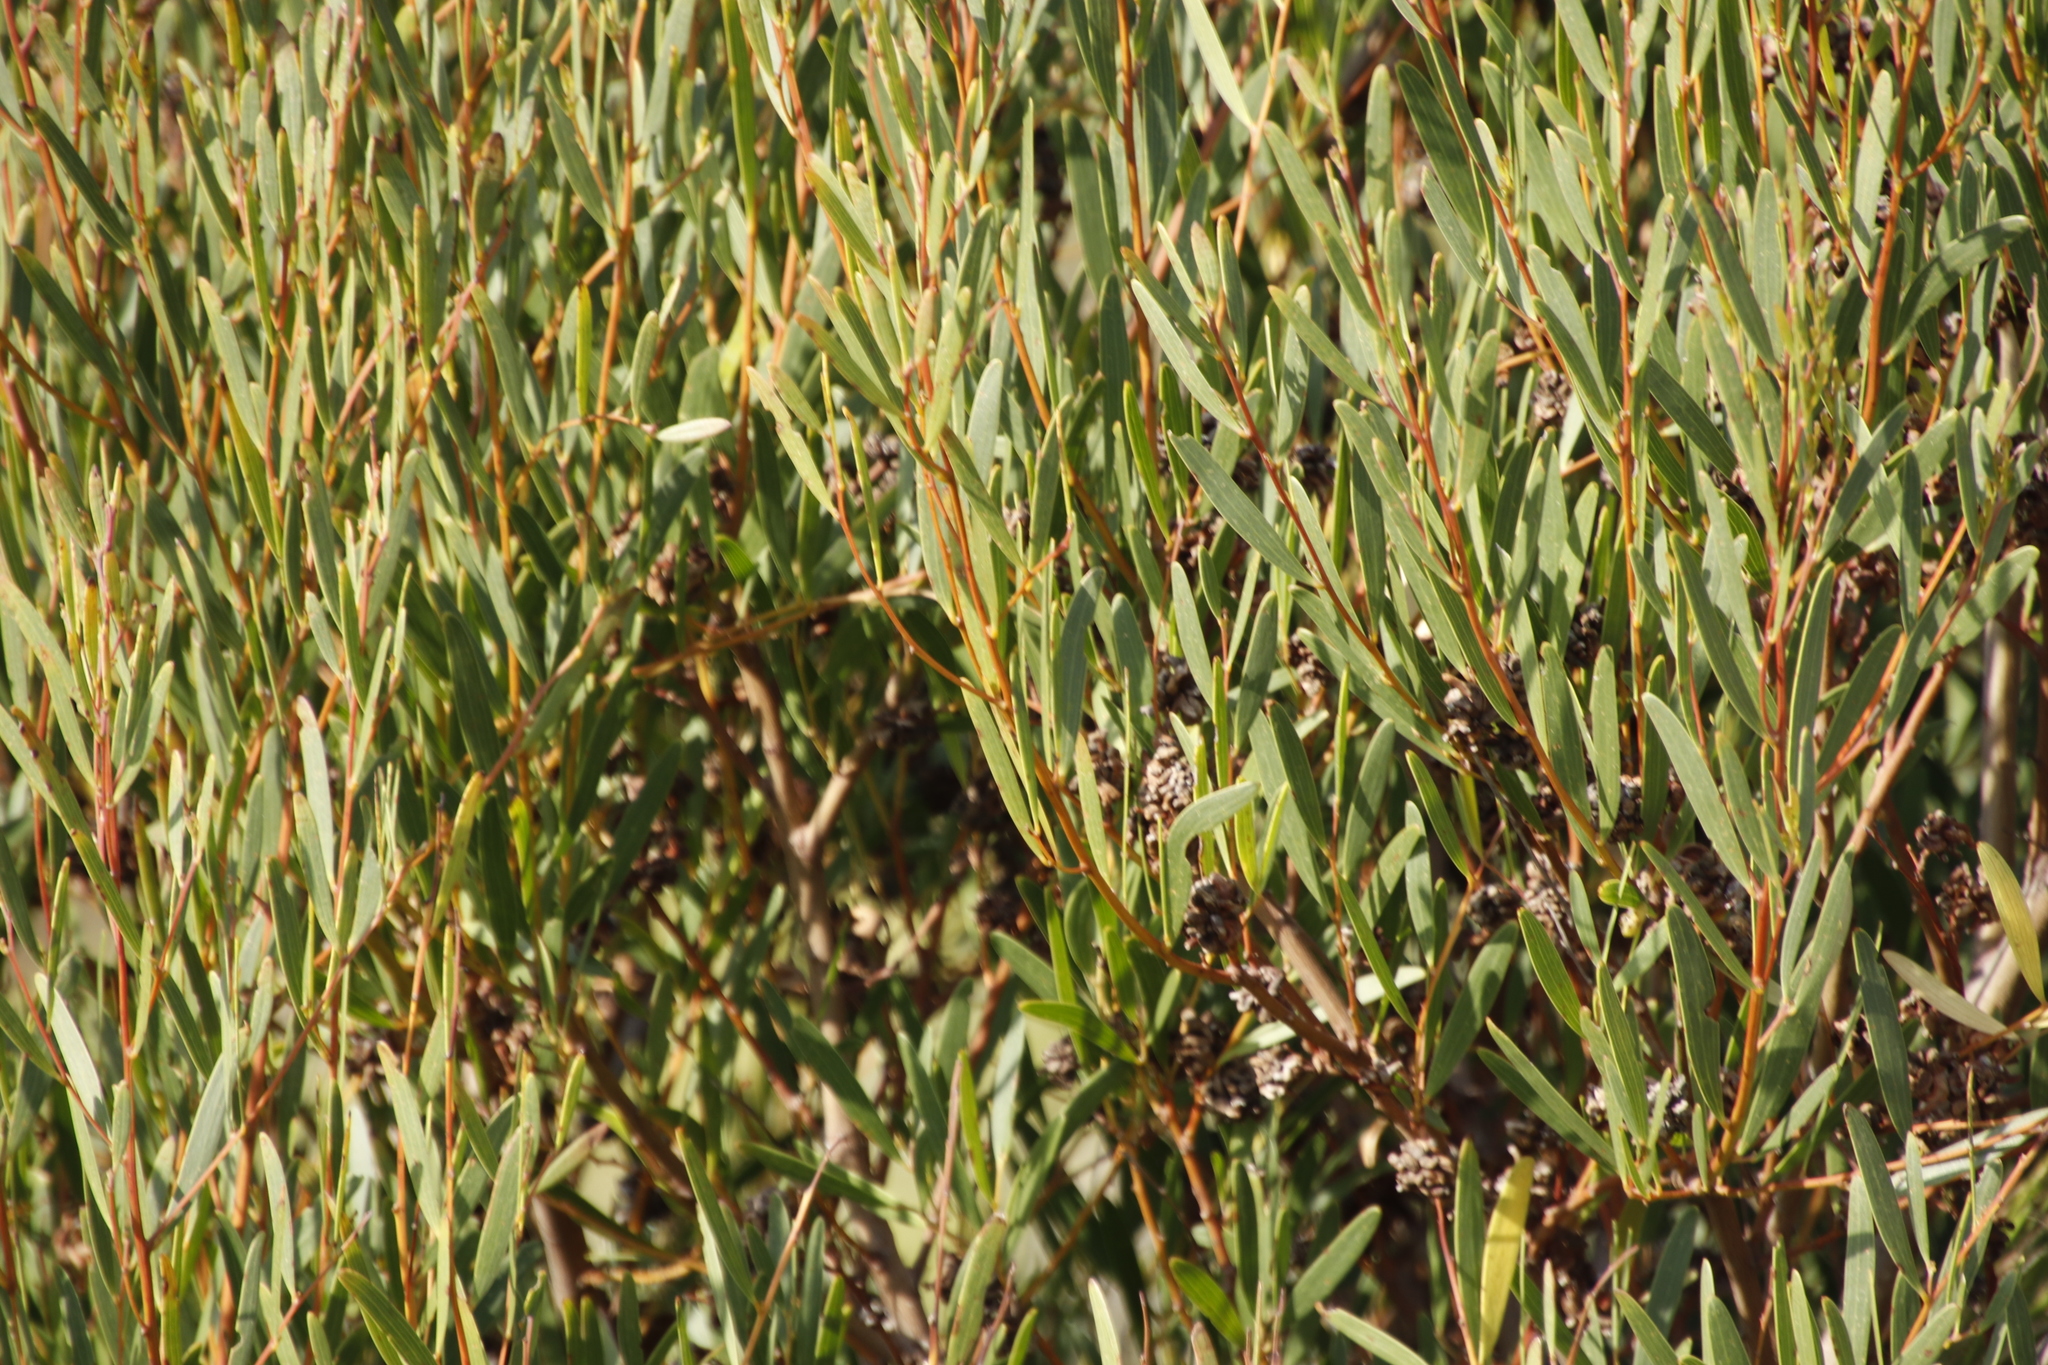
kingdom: Plantae
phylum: Tracheophyta
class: Magnoliopsida
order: Fabales
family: Fabaceae
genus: Acacia
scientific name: Acacia cyclops
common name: Coastal wattle
